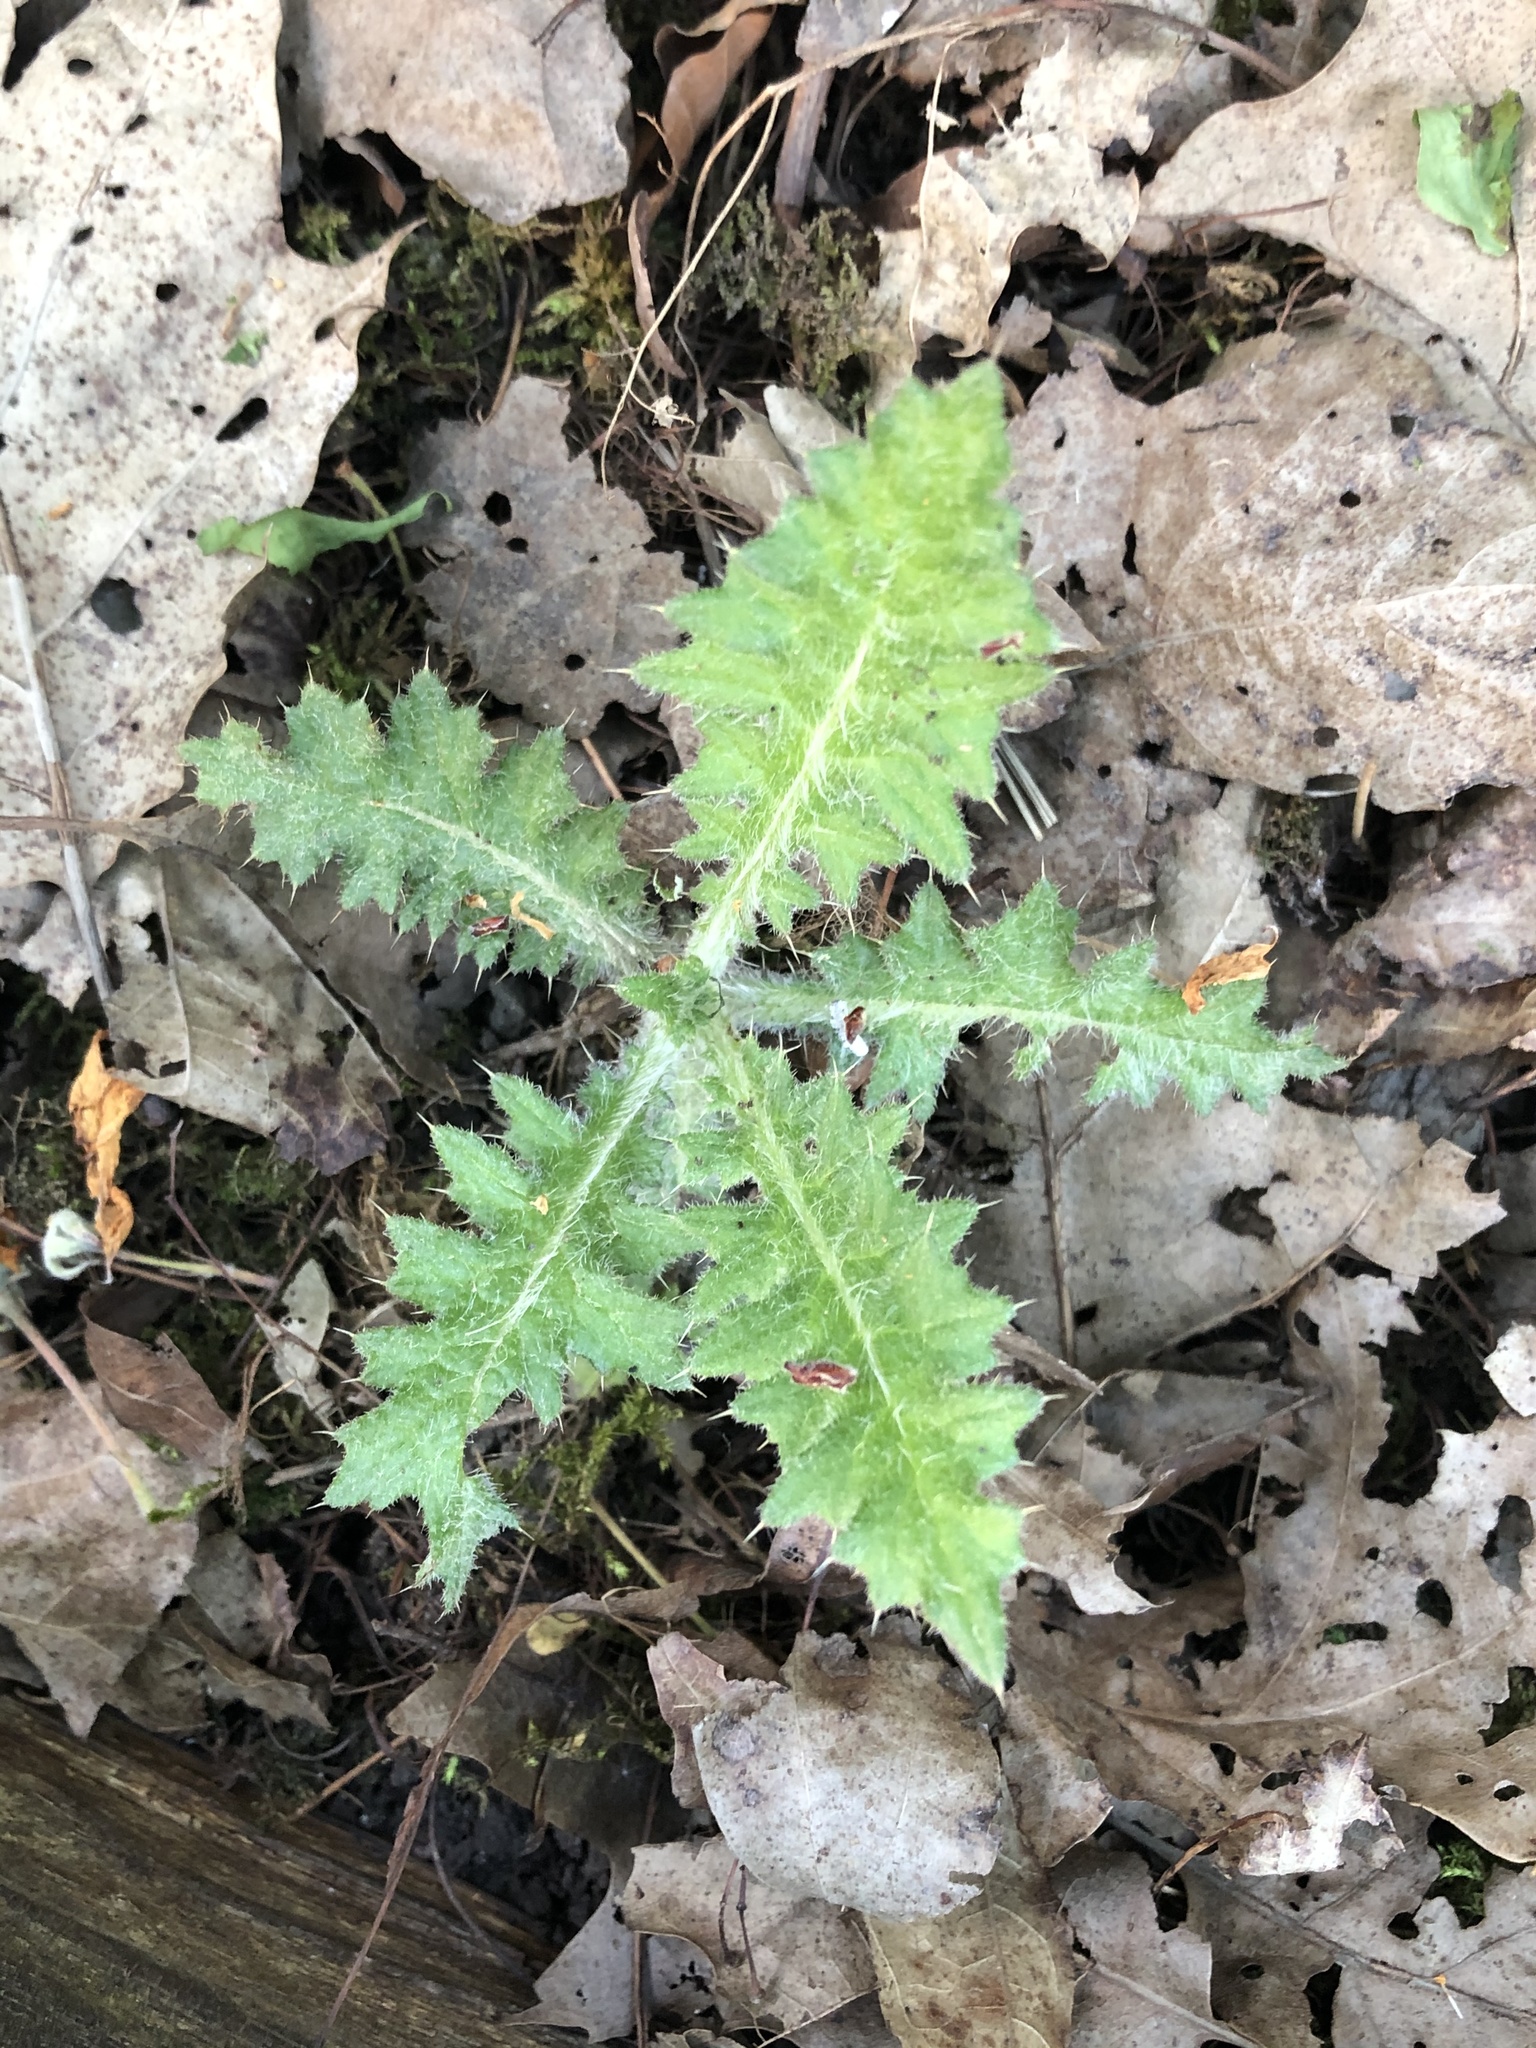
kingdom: Plantae
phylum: Tracheophyta
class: Magnoliopsida
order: Asterales
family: Asteraceae
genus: Cirsium
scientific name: Cirsium vulgare
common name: Bull thistle
